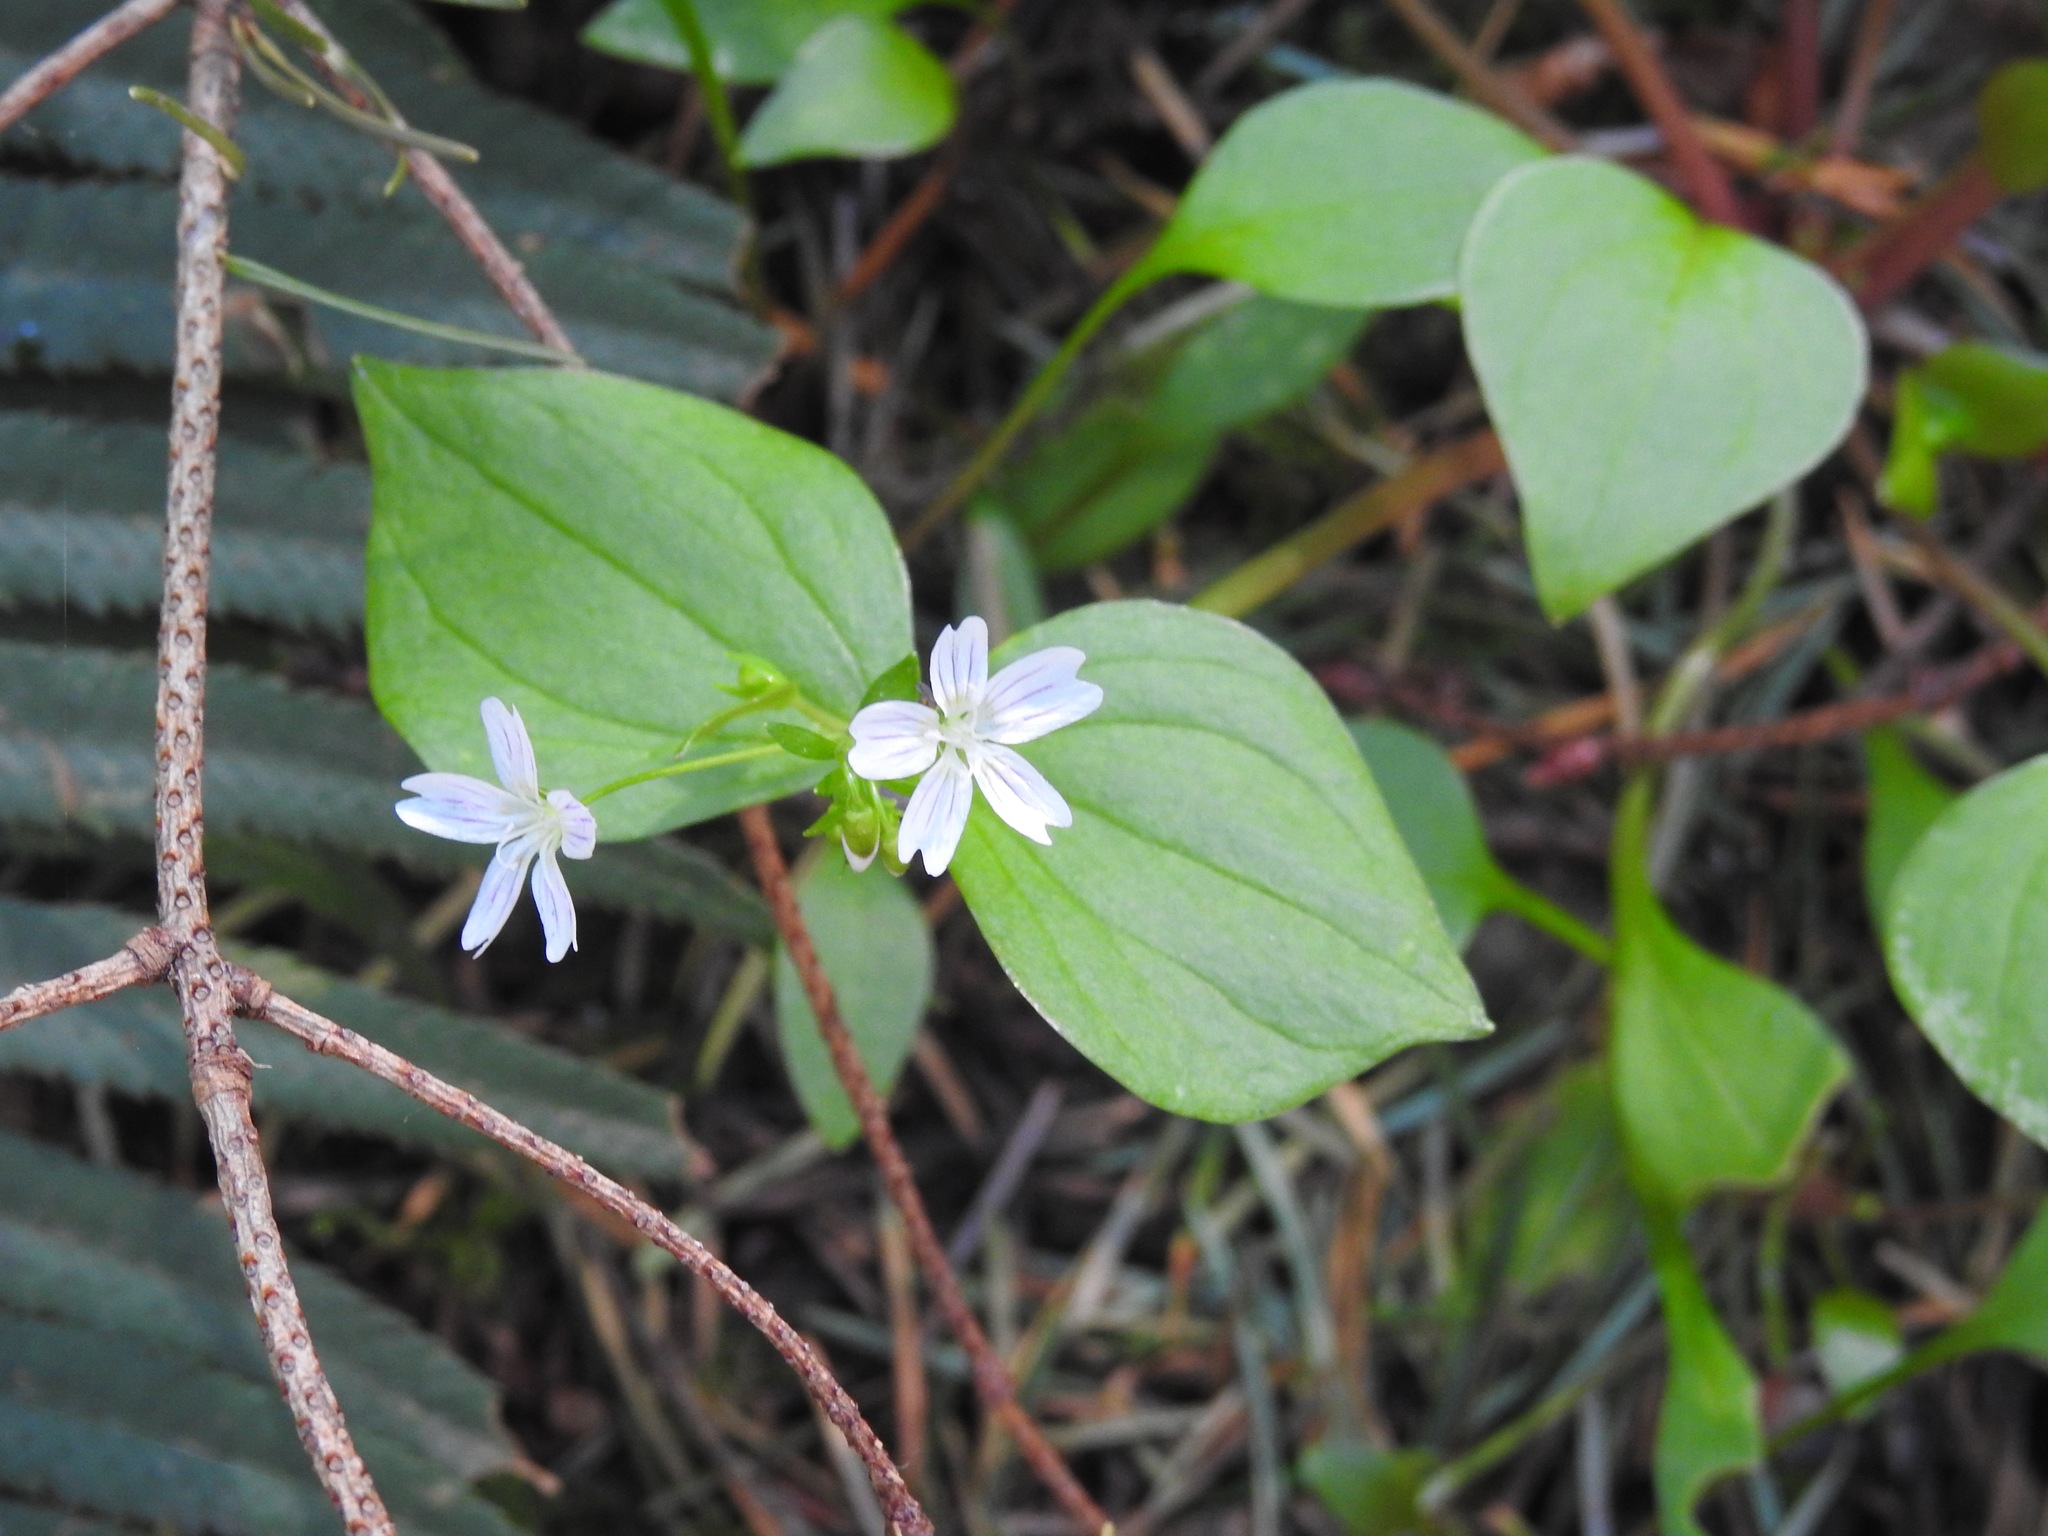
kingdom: Plantae
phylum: Tracheophyta
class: Magnoliopsida
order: Caryophyllales
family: Montiaceae
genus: Claytonia
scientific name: Claytonia sibirica
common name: Pink purslane
